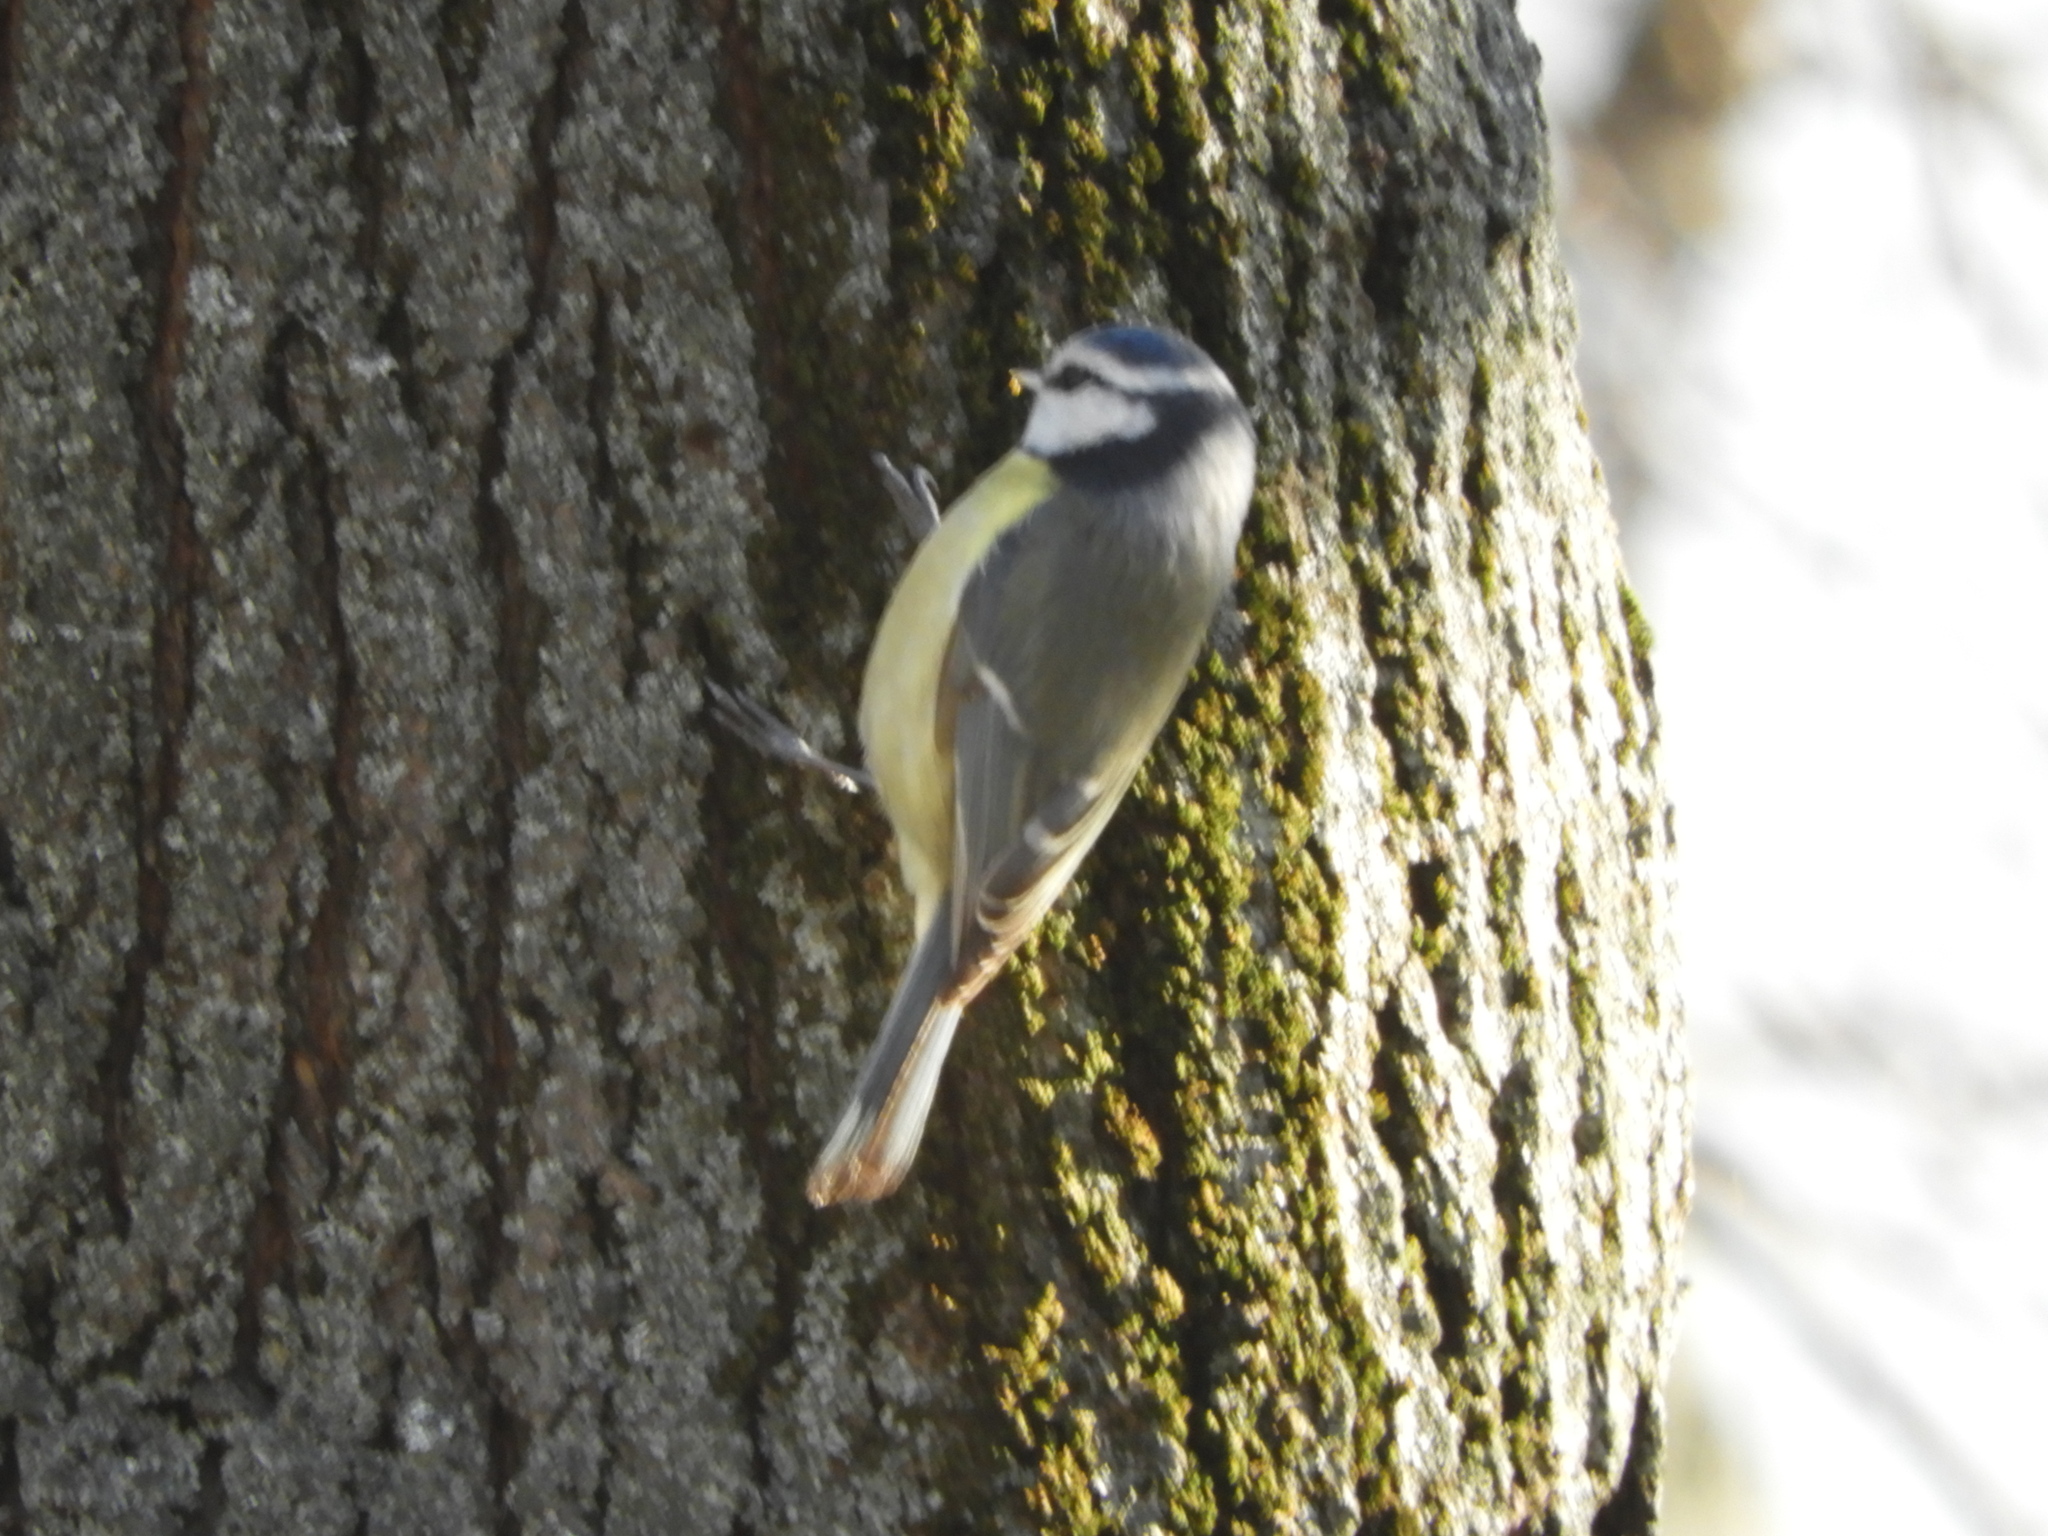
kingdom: Animalia
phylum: Chordata
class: Aves
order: Passeriformes
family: Paridae
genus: Cyanistes
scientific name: Cyanistes caeruleus
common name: Eurasian blue tit
